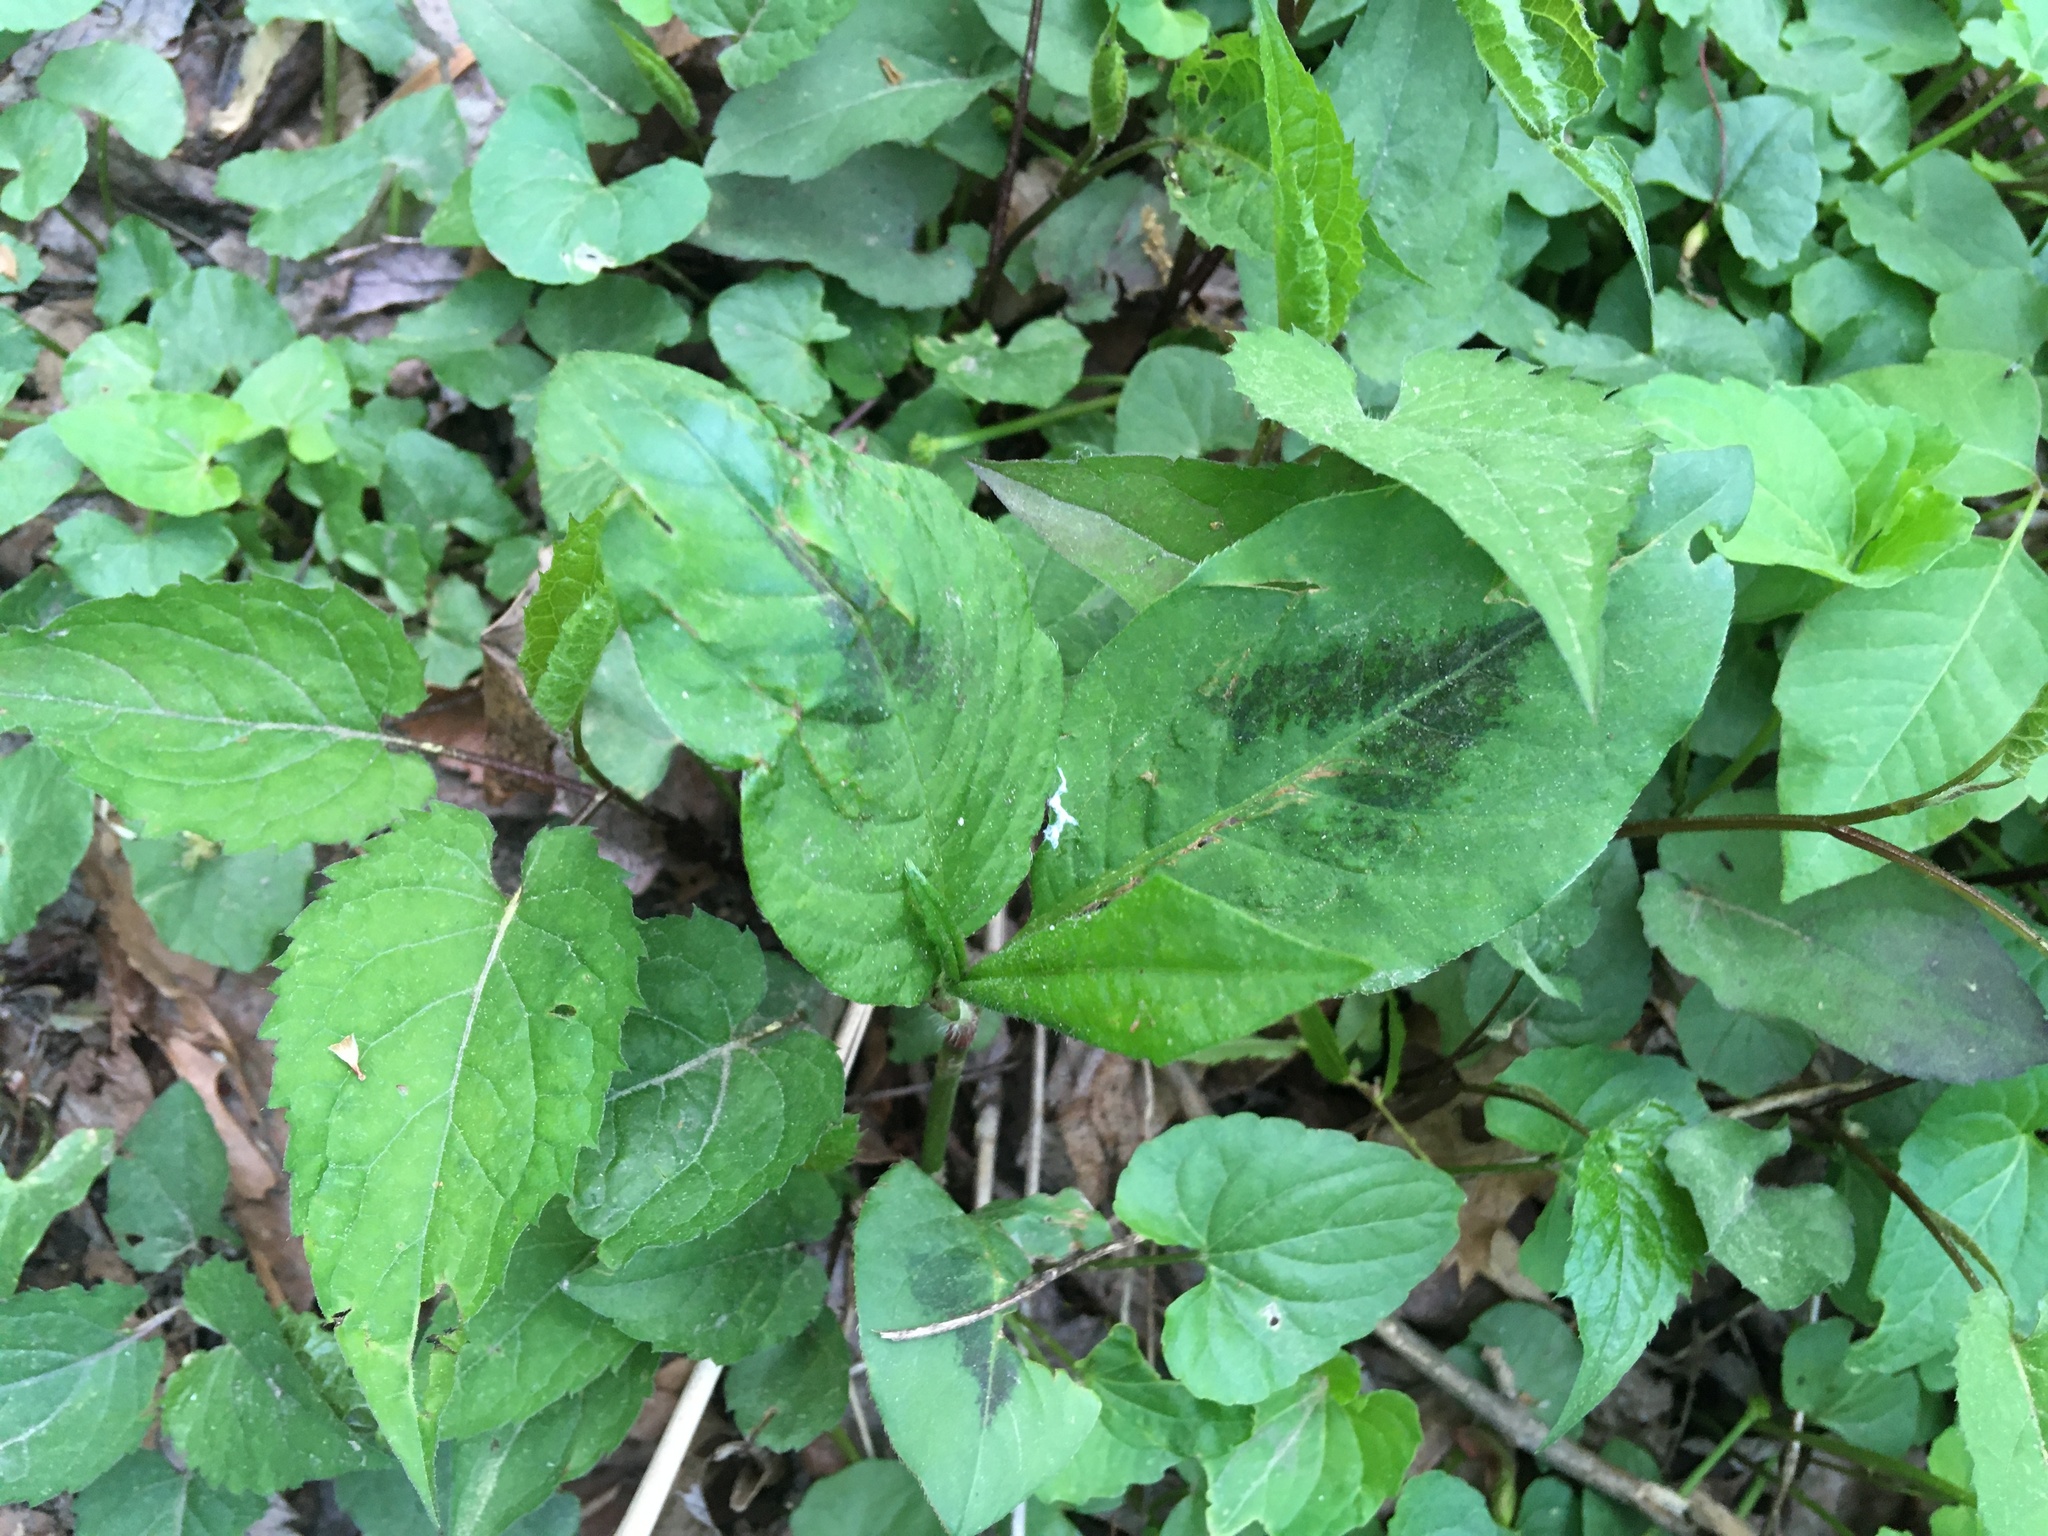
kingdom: Plantae
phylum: Tracheophyta
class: Magnoliopsida
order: Caryophyllales
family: Polygonaceae
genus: Persicaria
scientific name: Persicaria virginiana
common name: Jumpseed
